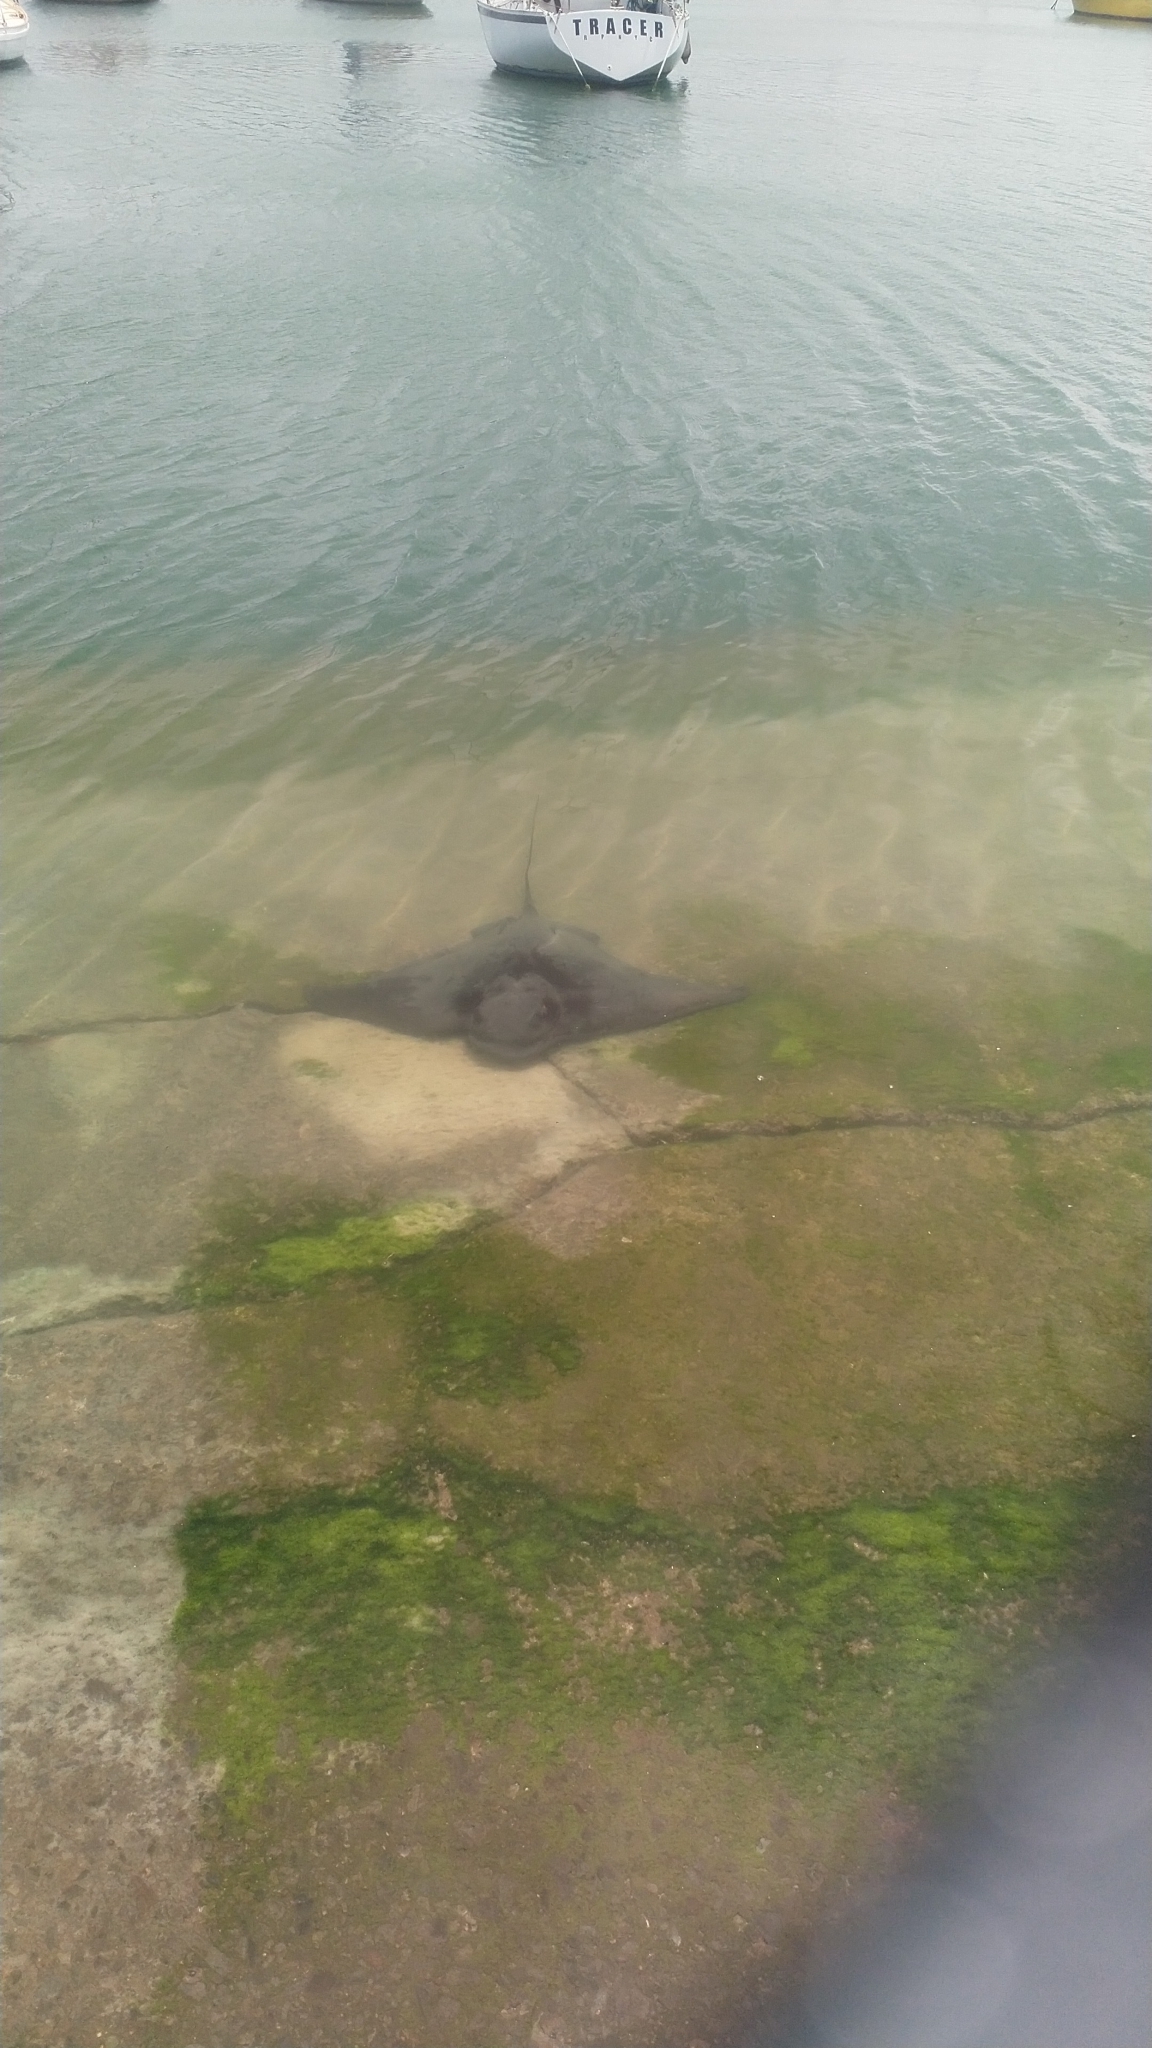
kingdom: Animalia
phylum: Chordata
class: Elasmobranchii
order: Myliobatiformes
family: Myliobatidae
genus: Myliobatis
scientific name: Myliobatis tenuicaudatus
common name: Eagle ray
